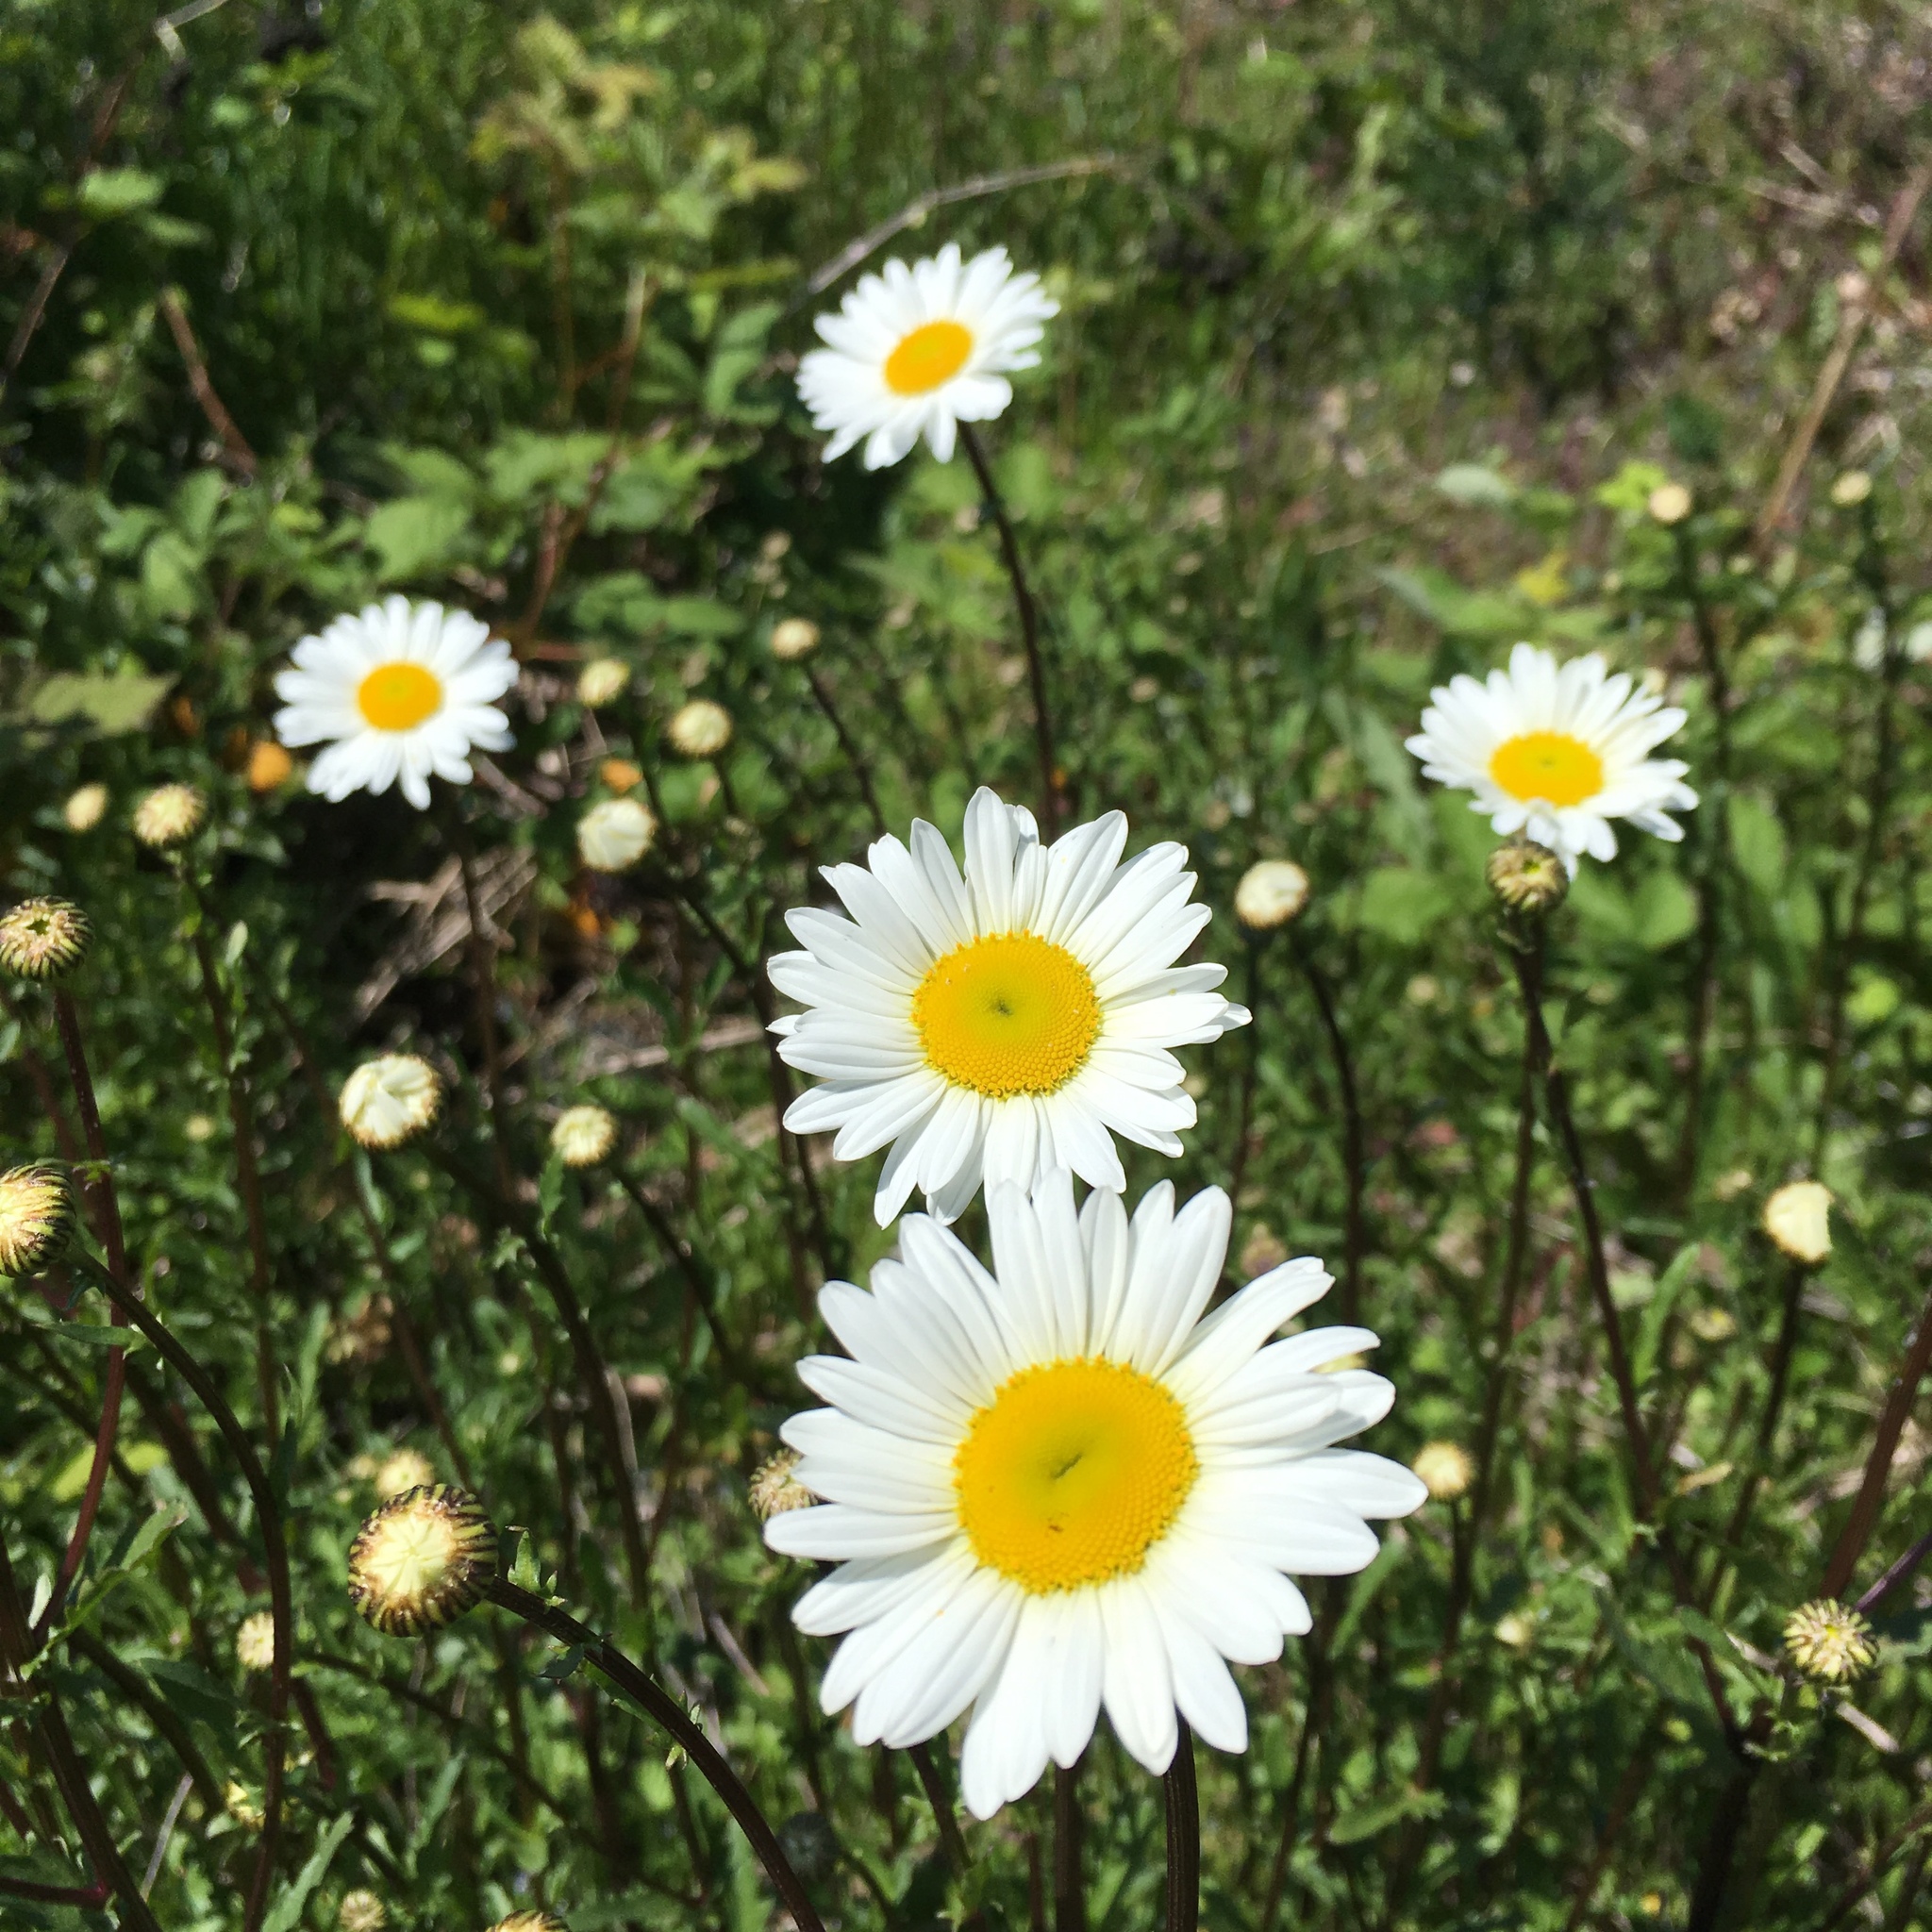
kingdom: Plantae
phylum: Tracheophyta
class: Magnoliopsida
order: Asterales
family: Asteraceae
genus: Leucanthemum
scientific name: Leucanthemum vulgare
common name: Oxeye daisy
